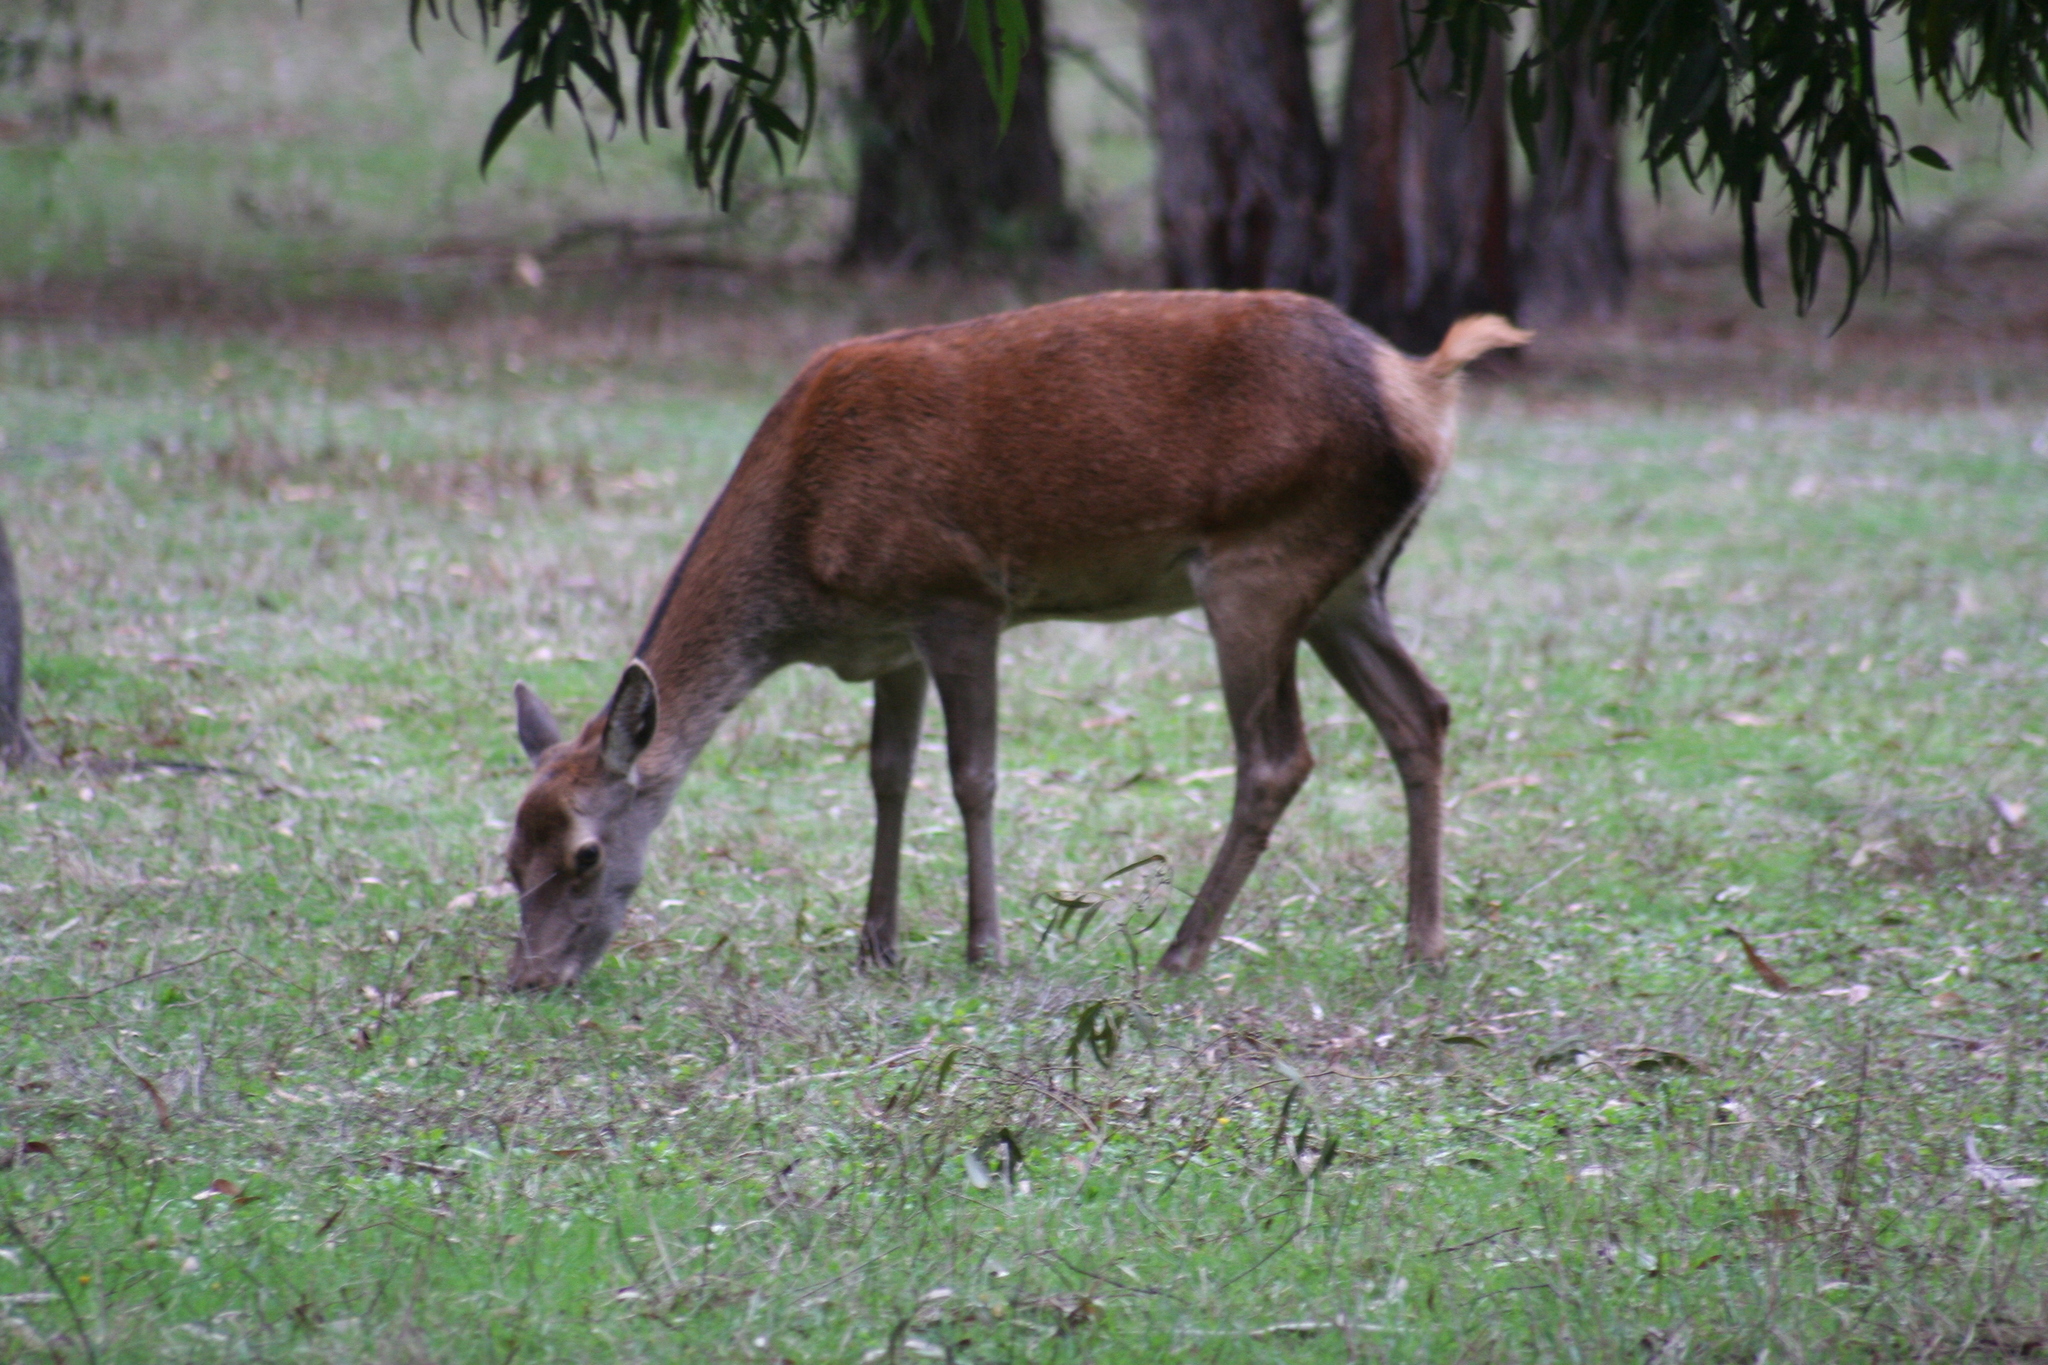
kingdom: Animalia
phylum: Chordata
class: Mammalia
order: Artiodactyla
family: Cervidae
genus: Cervus
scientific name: Cervus elaphus
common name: Red deer
